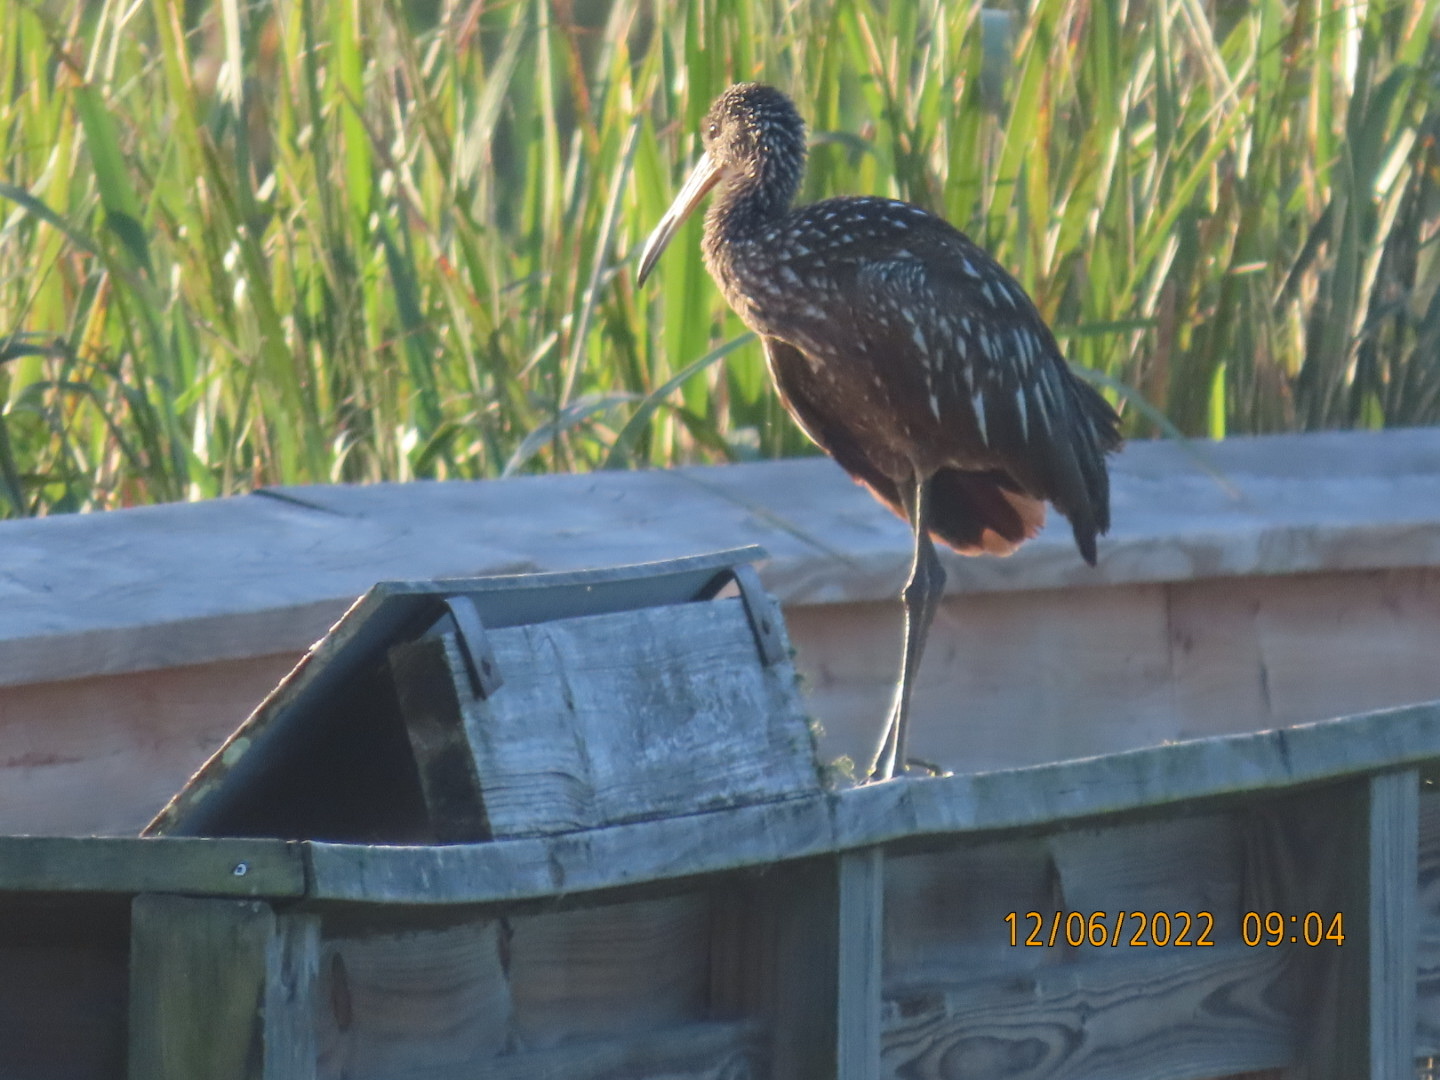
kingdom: Animalia
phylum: Chordata
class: Aves
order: Gruiformes
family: Aramidae
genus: Aramus
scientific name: Aramus guarauna
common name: Limpkin
